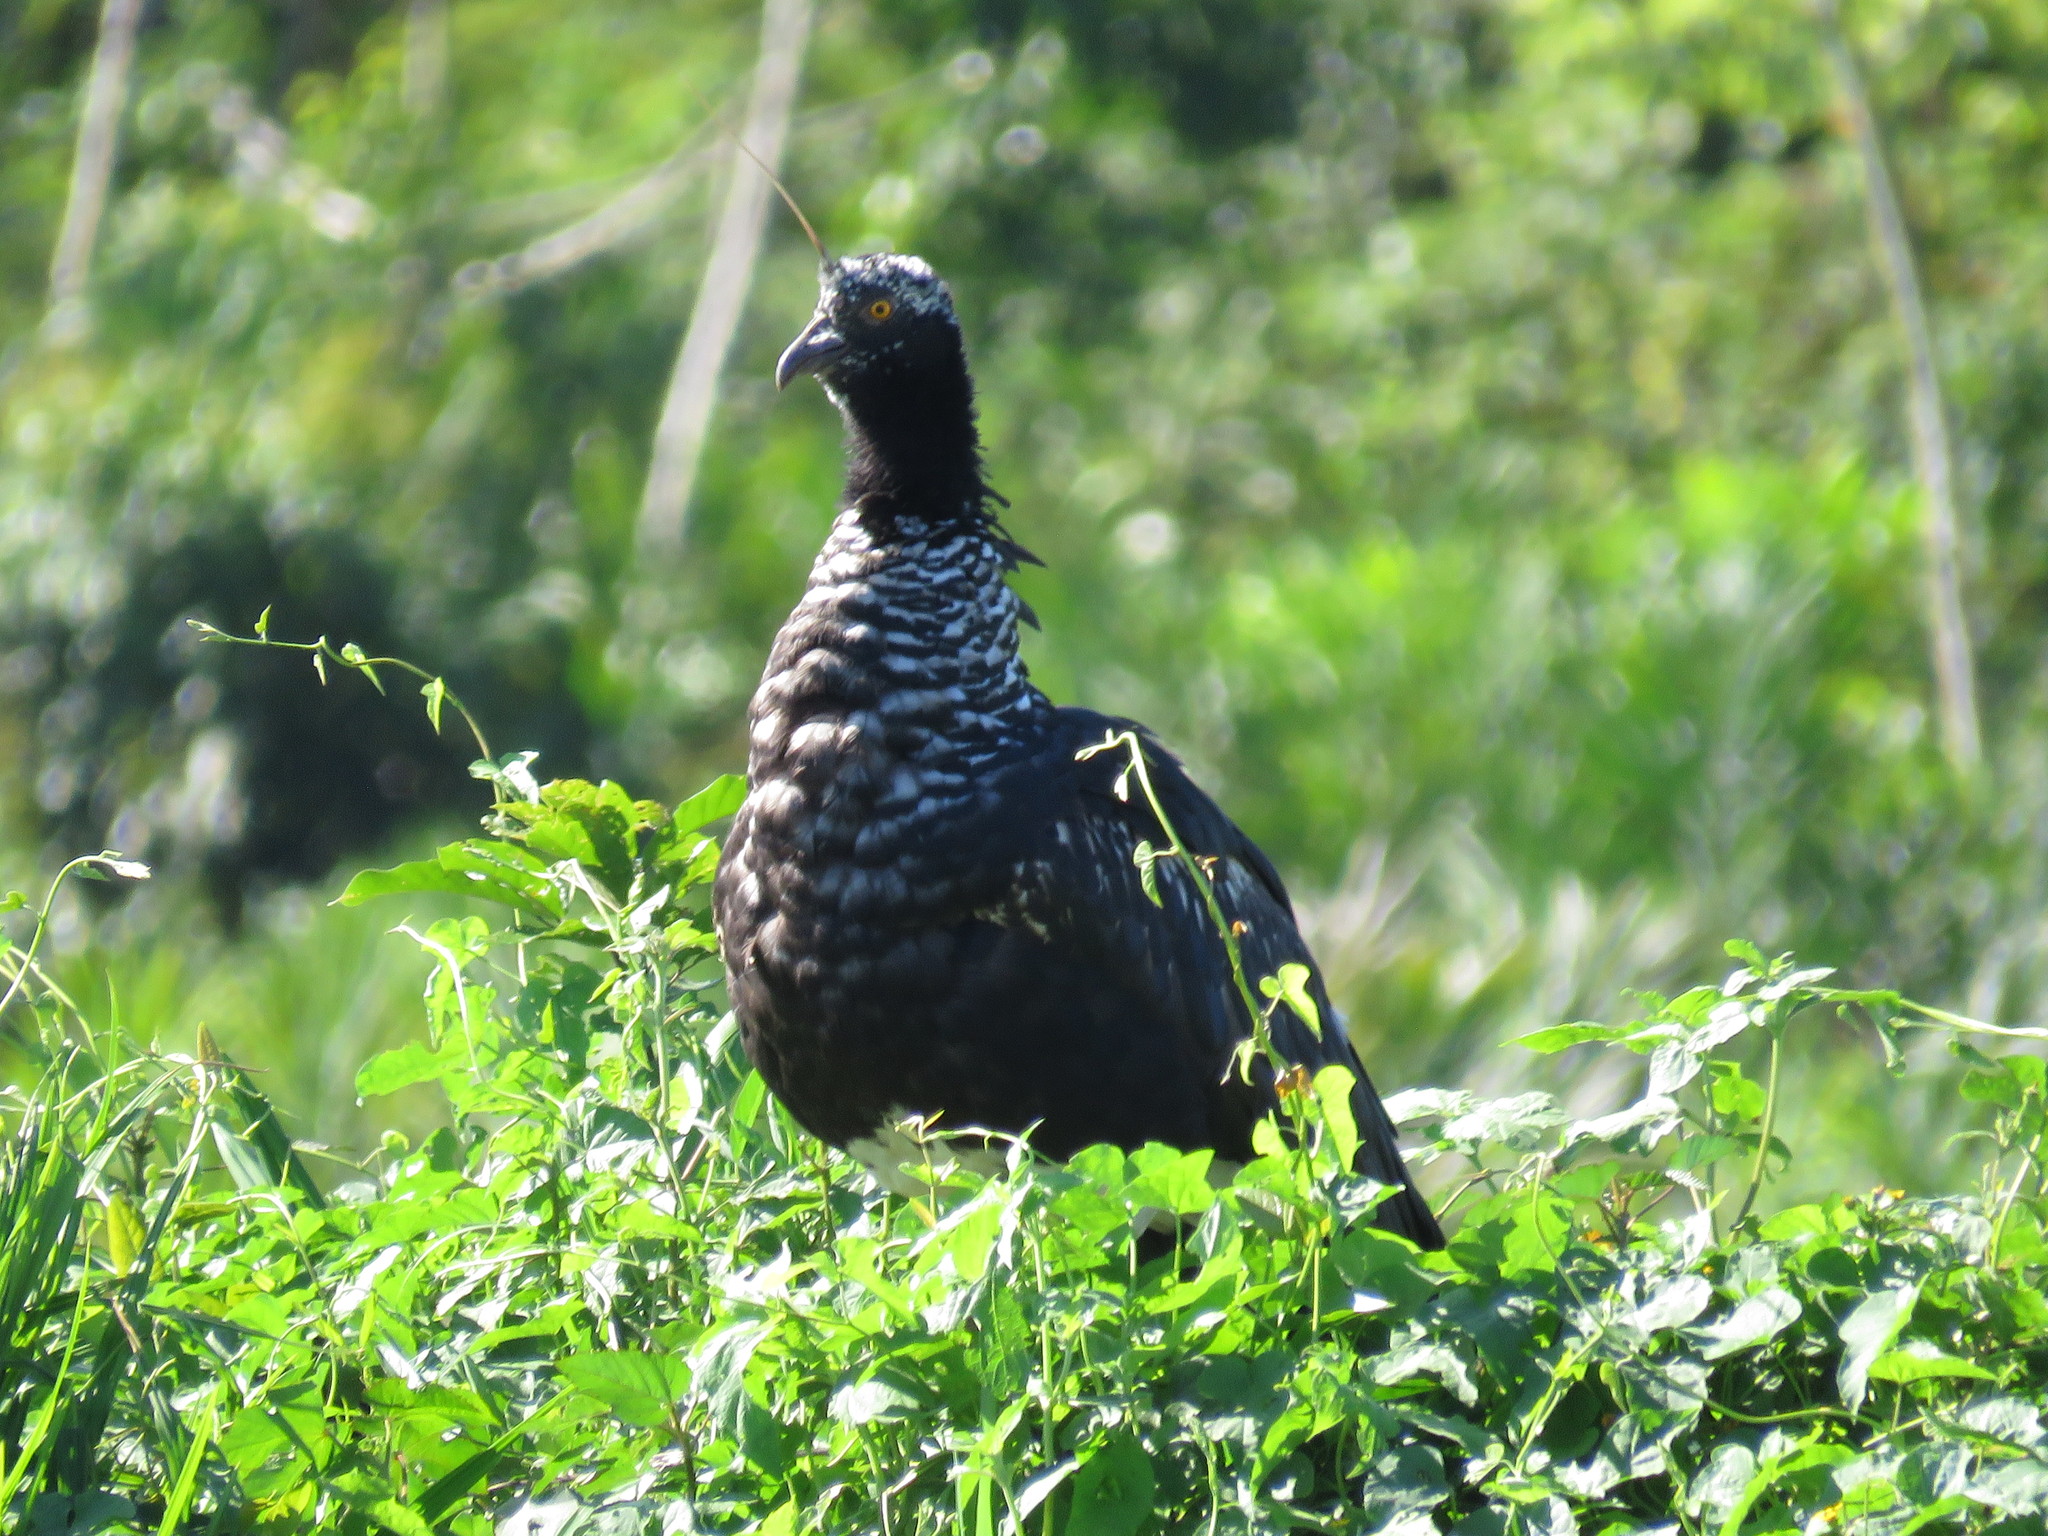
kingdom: Animalia
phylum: Chordata
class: Aves
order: Anseriformes
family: Anhimidae
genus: Anhima
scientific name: Anhima cornuta
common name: Horned screamer
